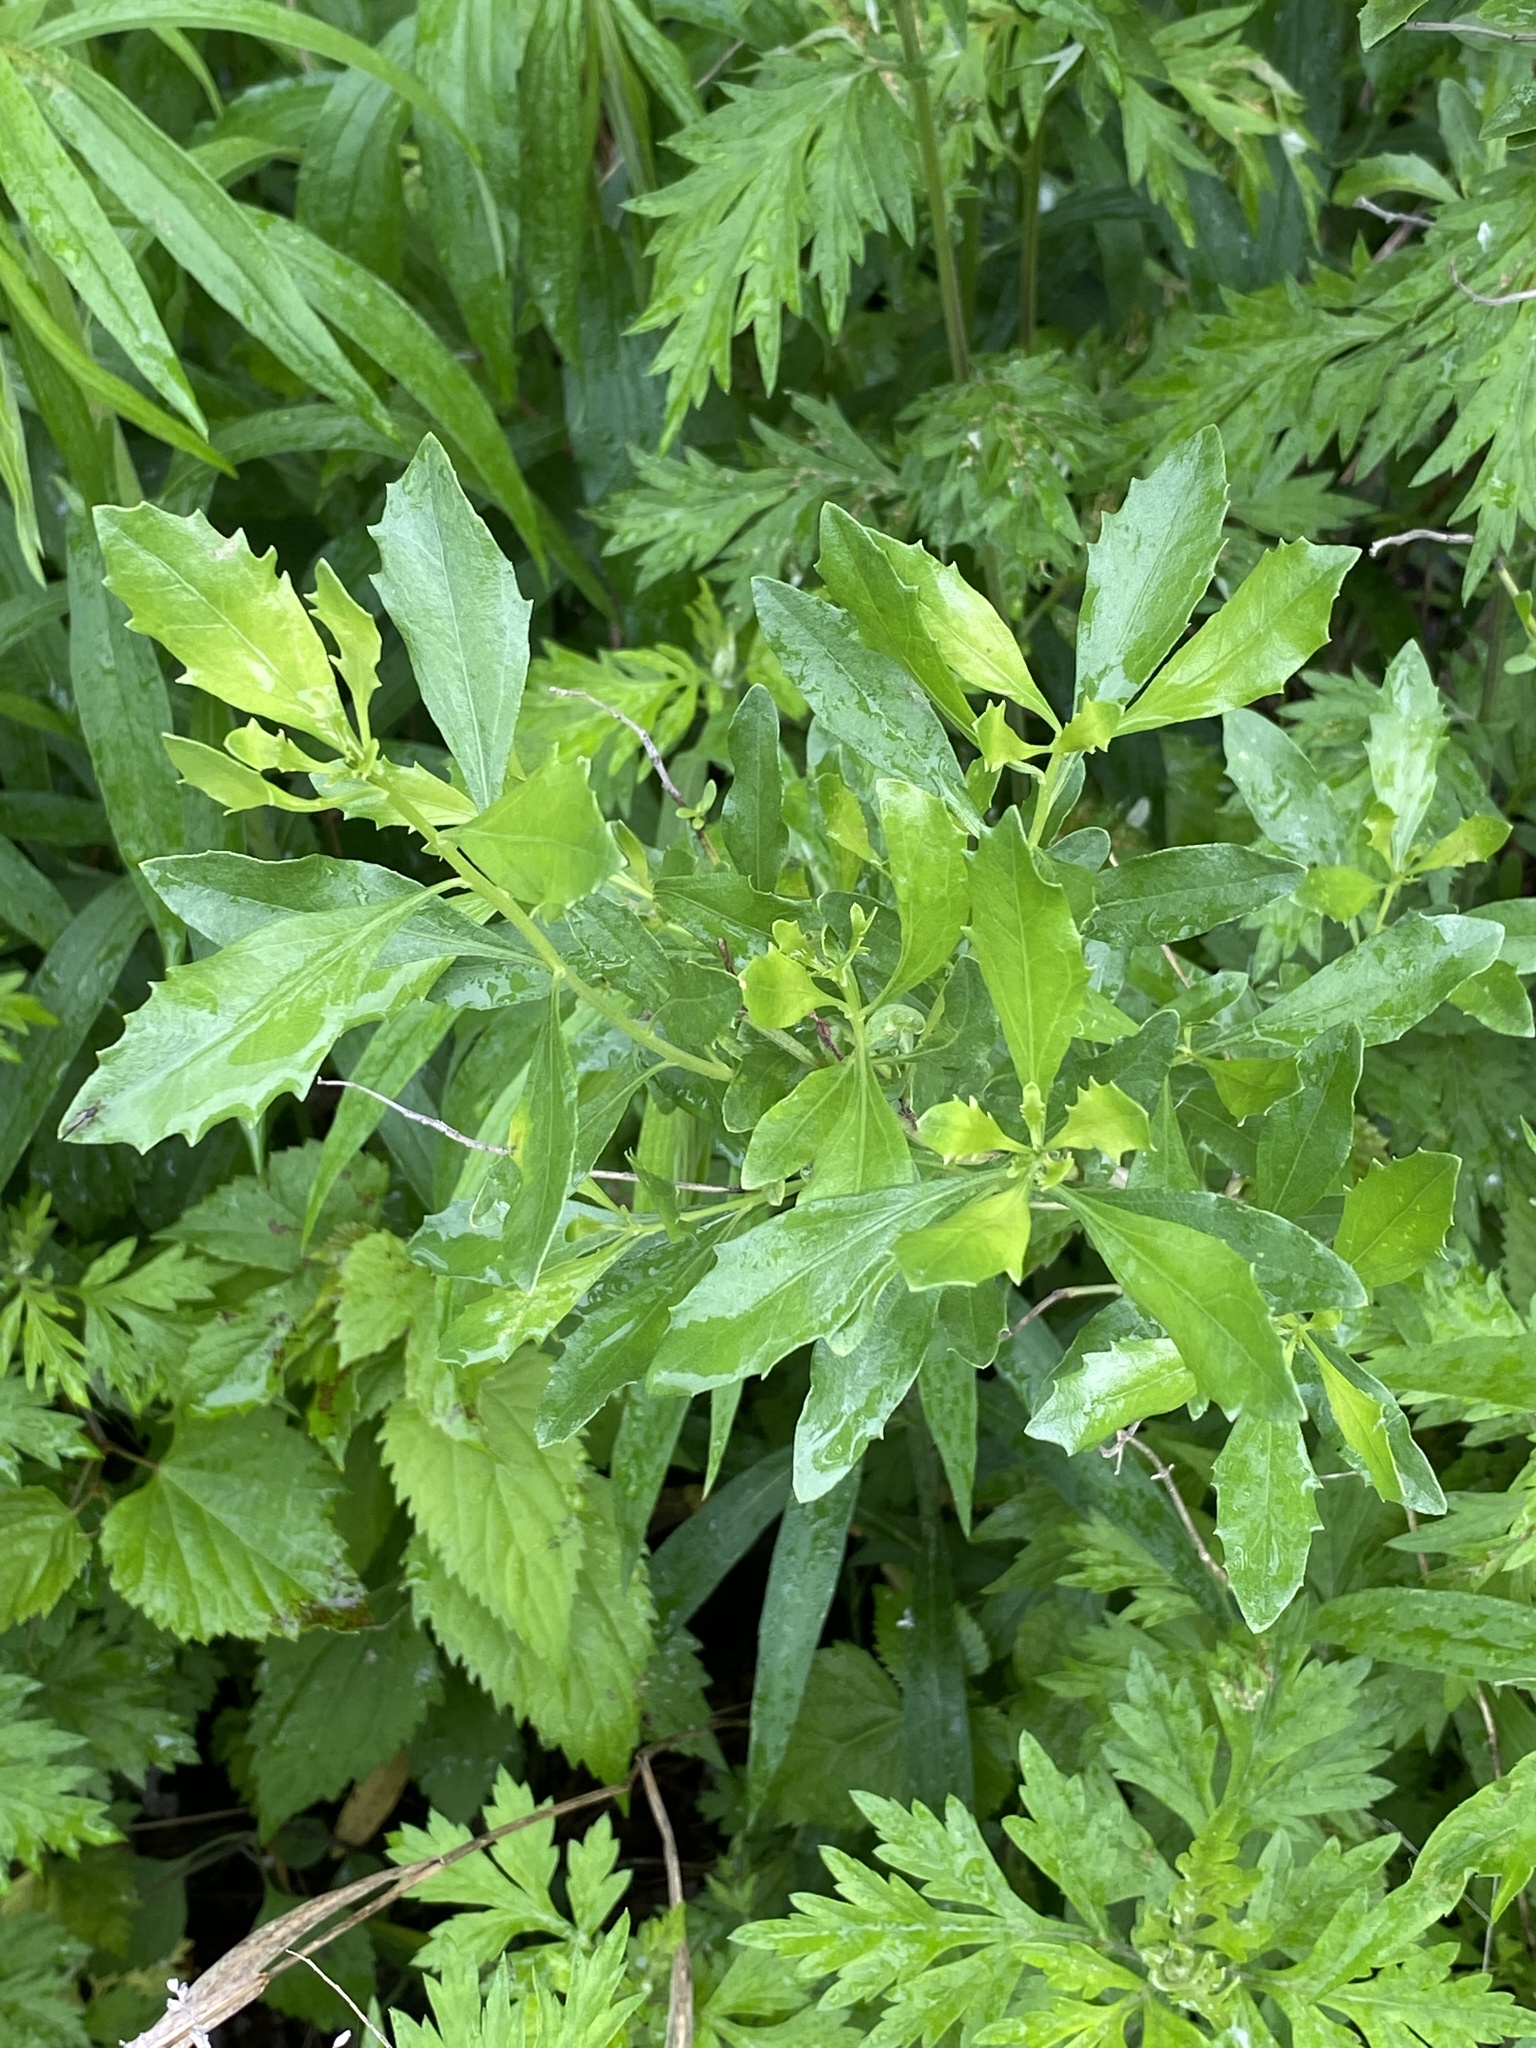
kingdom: Plantae
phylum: Tracheophyta
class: Magnoliopsida
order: Asterales
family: Asteraceae
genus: Baccharis
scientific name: Baccharis halimifolia
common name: Eastern baccharis
